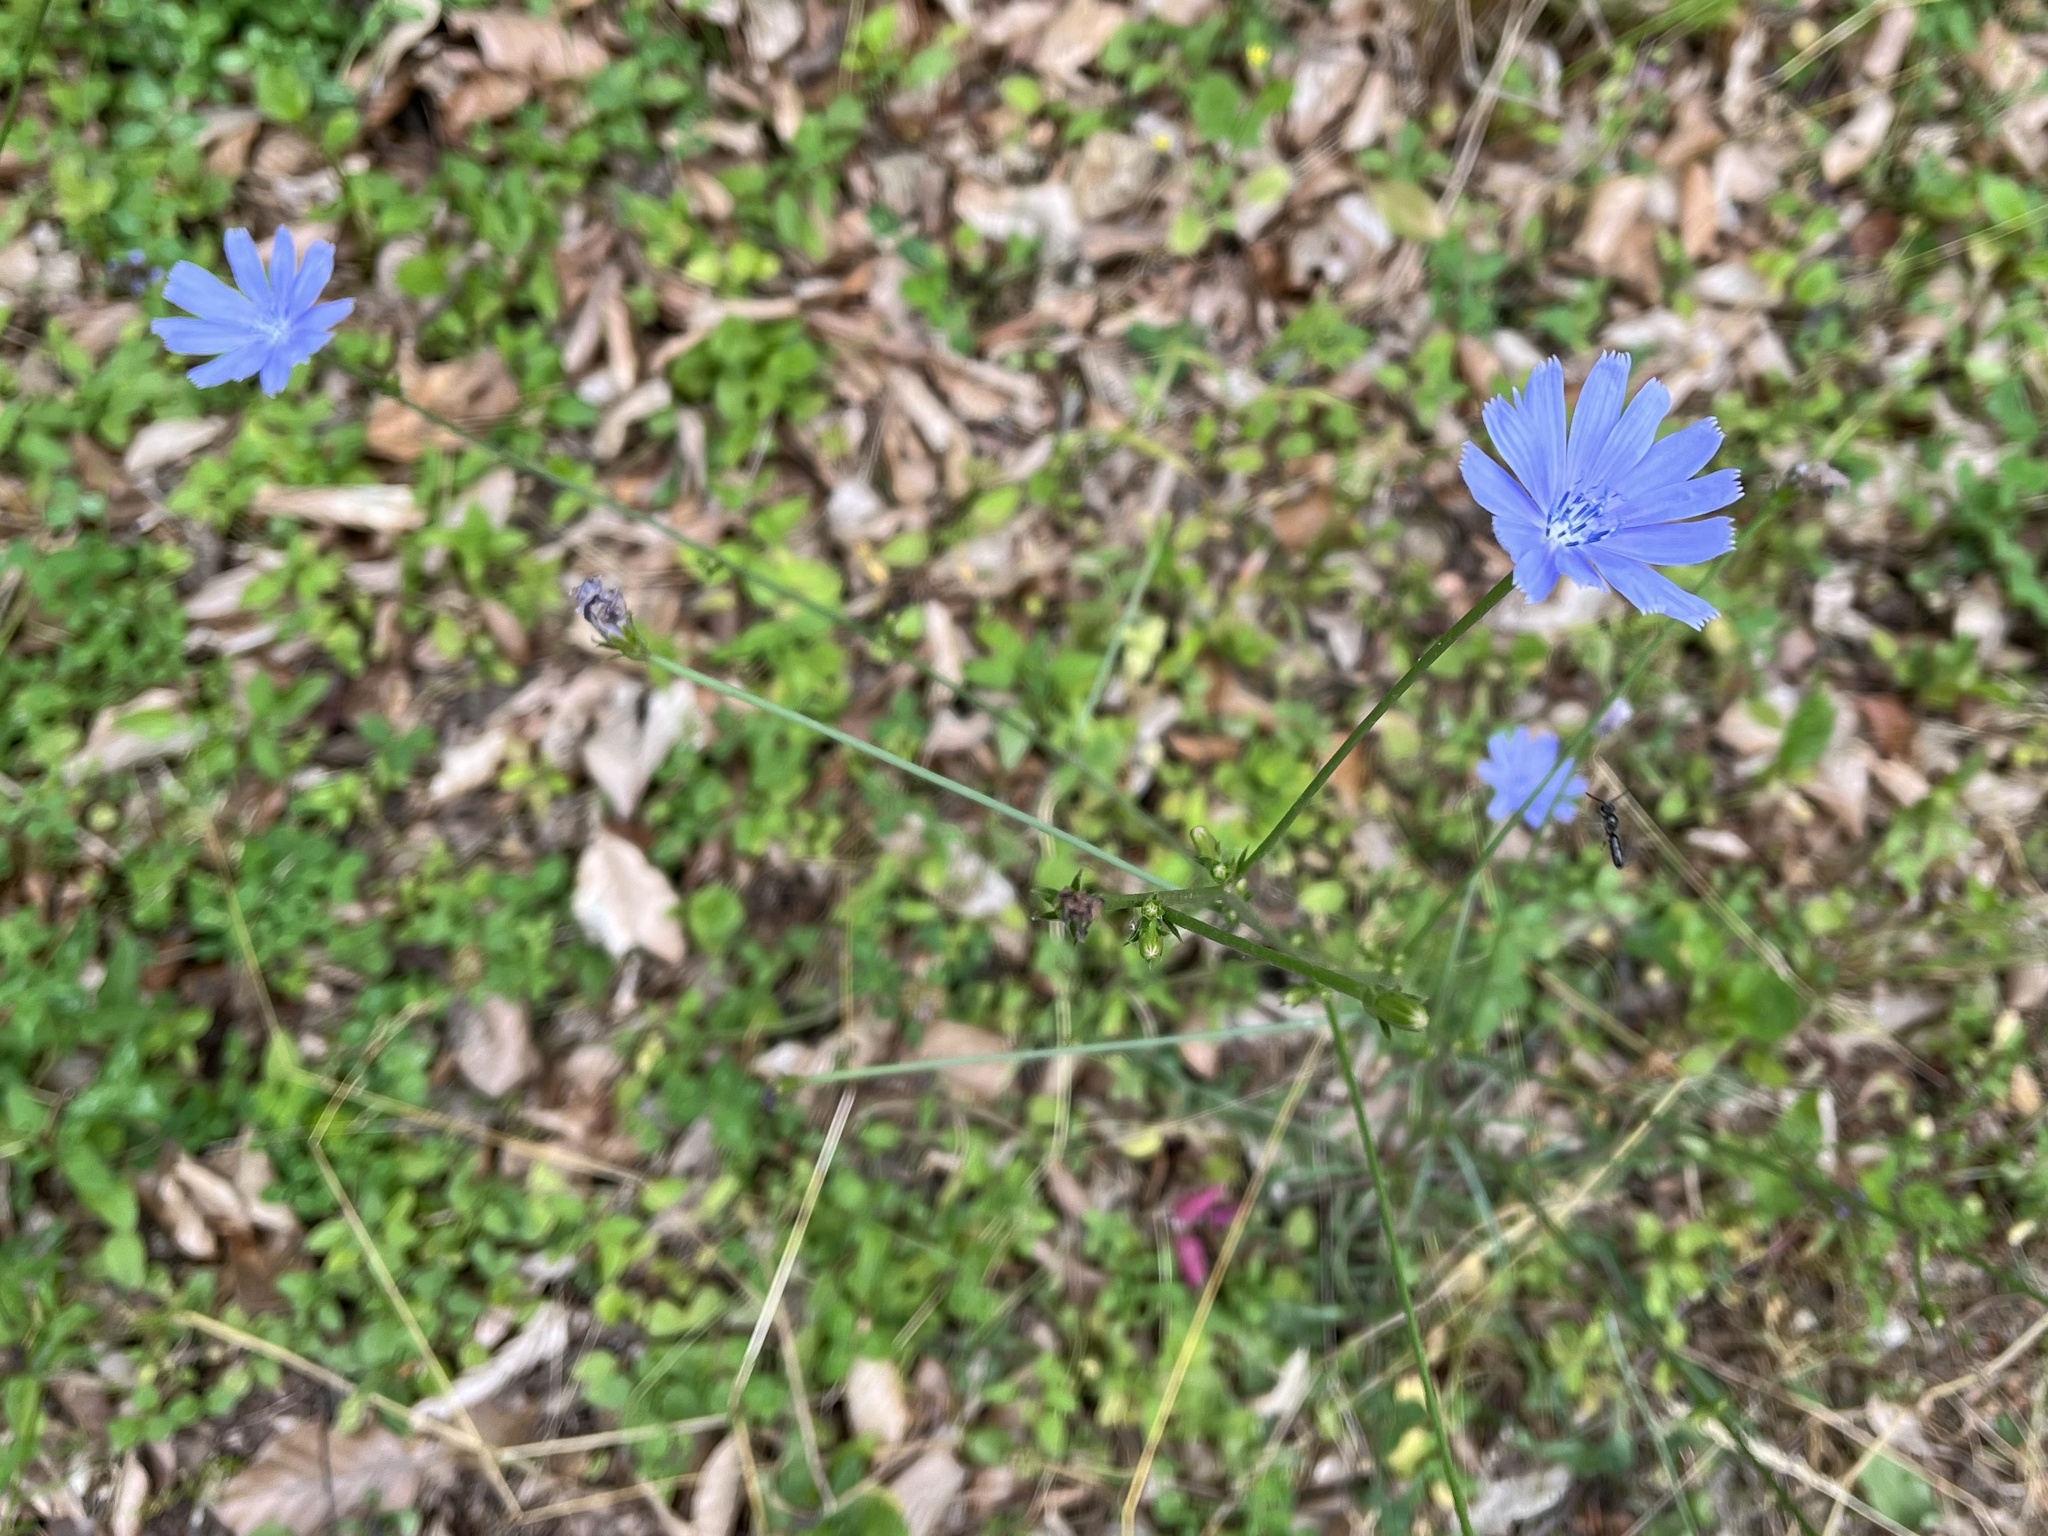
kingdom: Plantae
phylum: Tracheophyta
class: Magnoliopsida
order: Asterales
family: Asteraceae
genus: Cichorium
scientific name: Cichorium intybus
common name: Chicory
